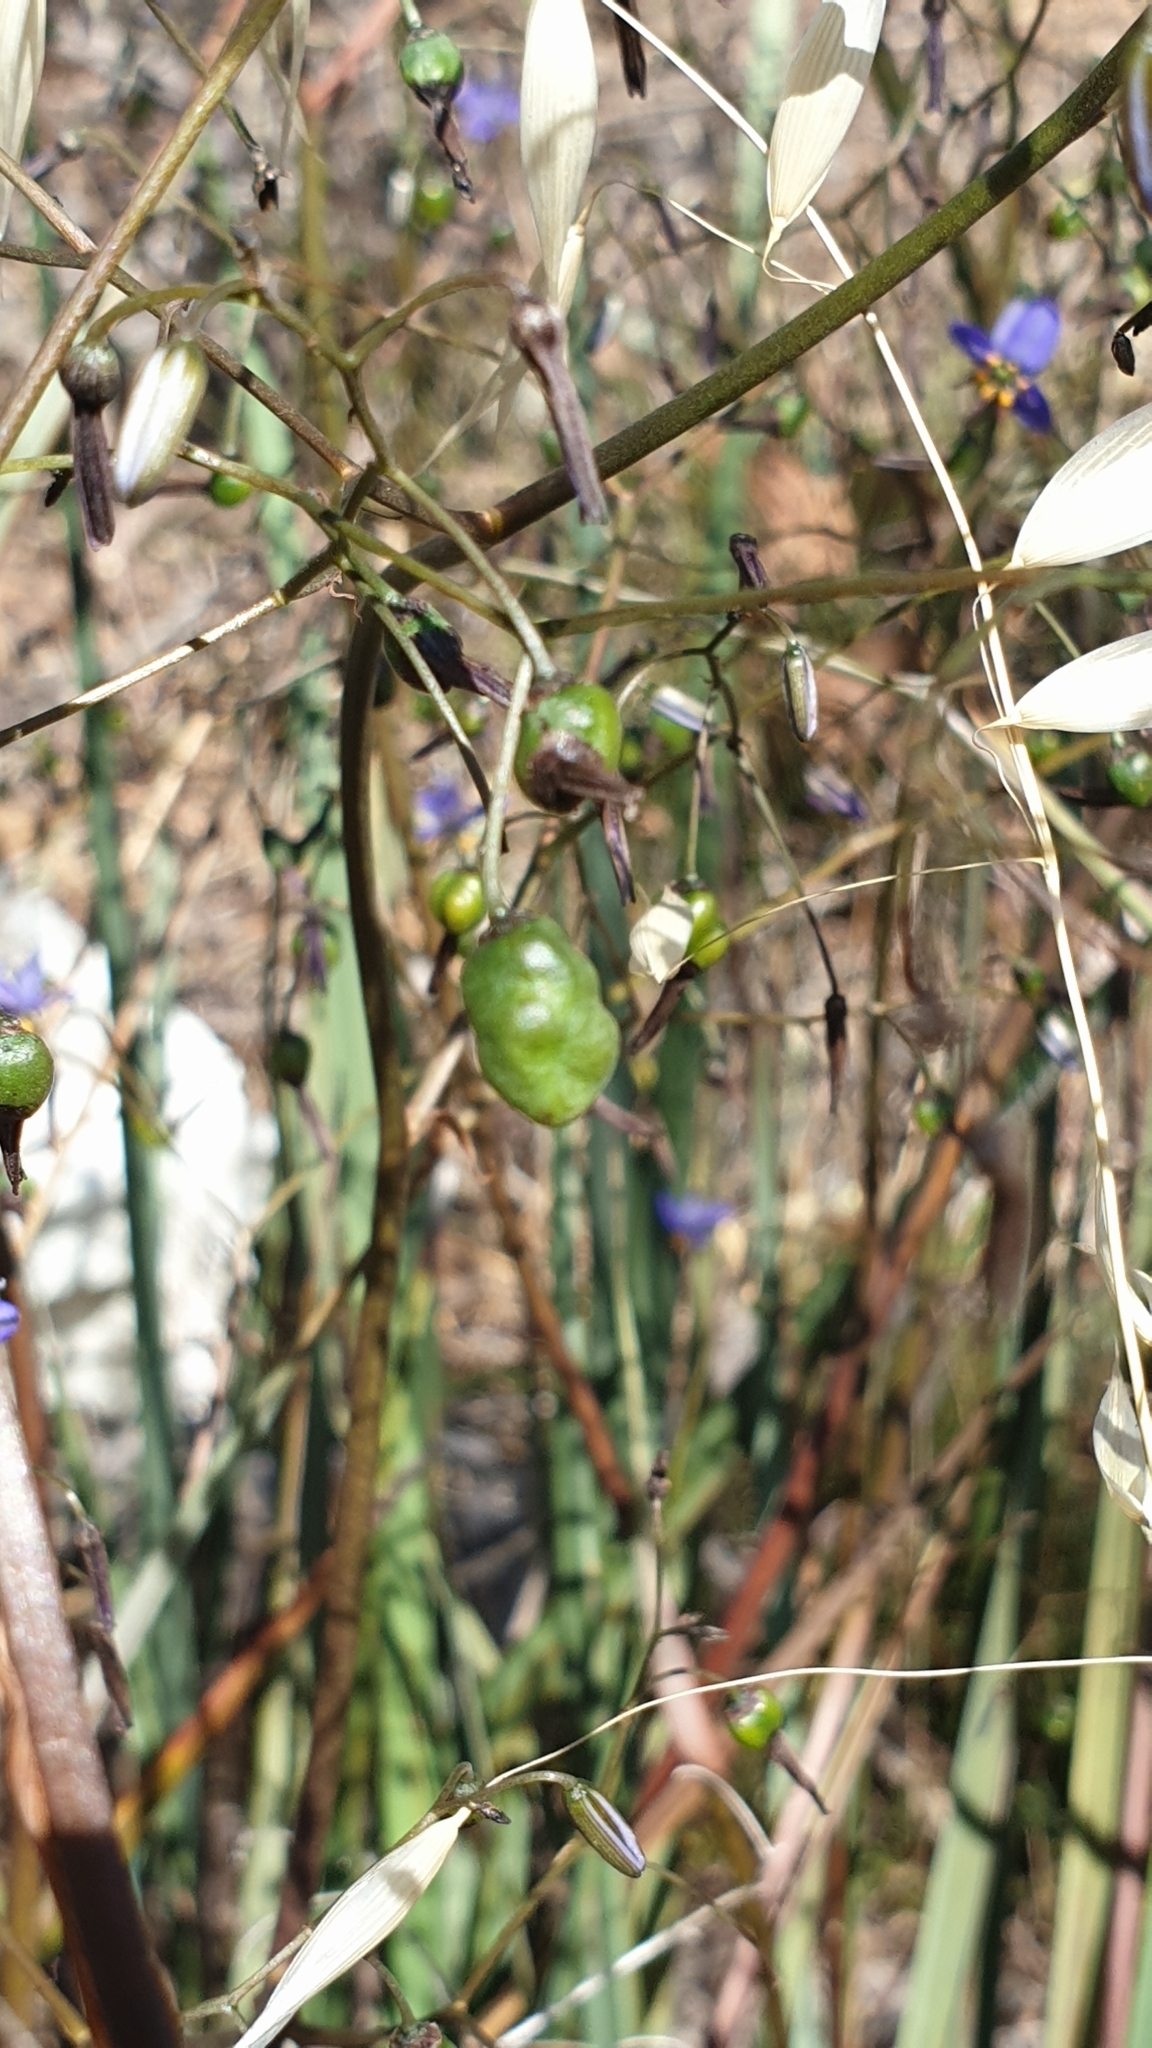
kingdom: Plantae
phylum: Tracheophyta
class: Liliopsida
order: Asparagales
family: Asphodelaceae
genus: Dianella
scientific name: Dianella revoluta
